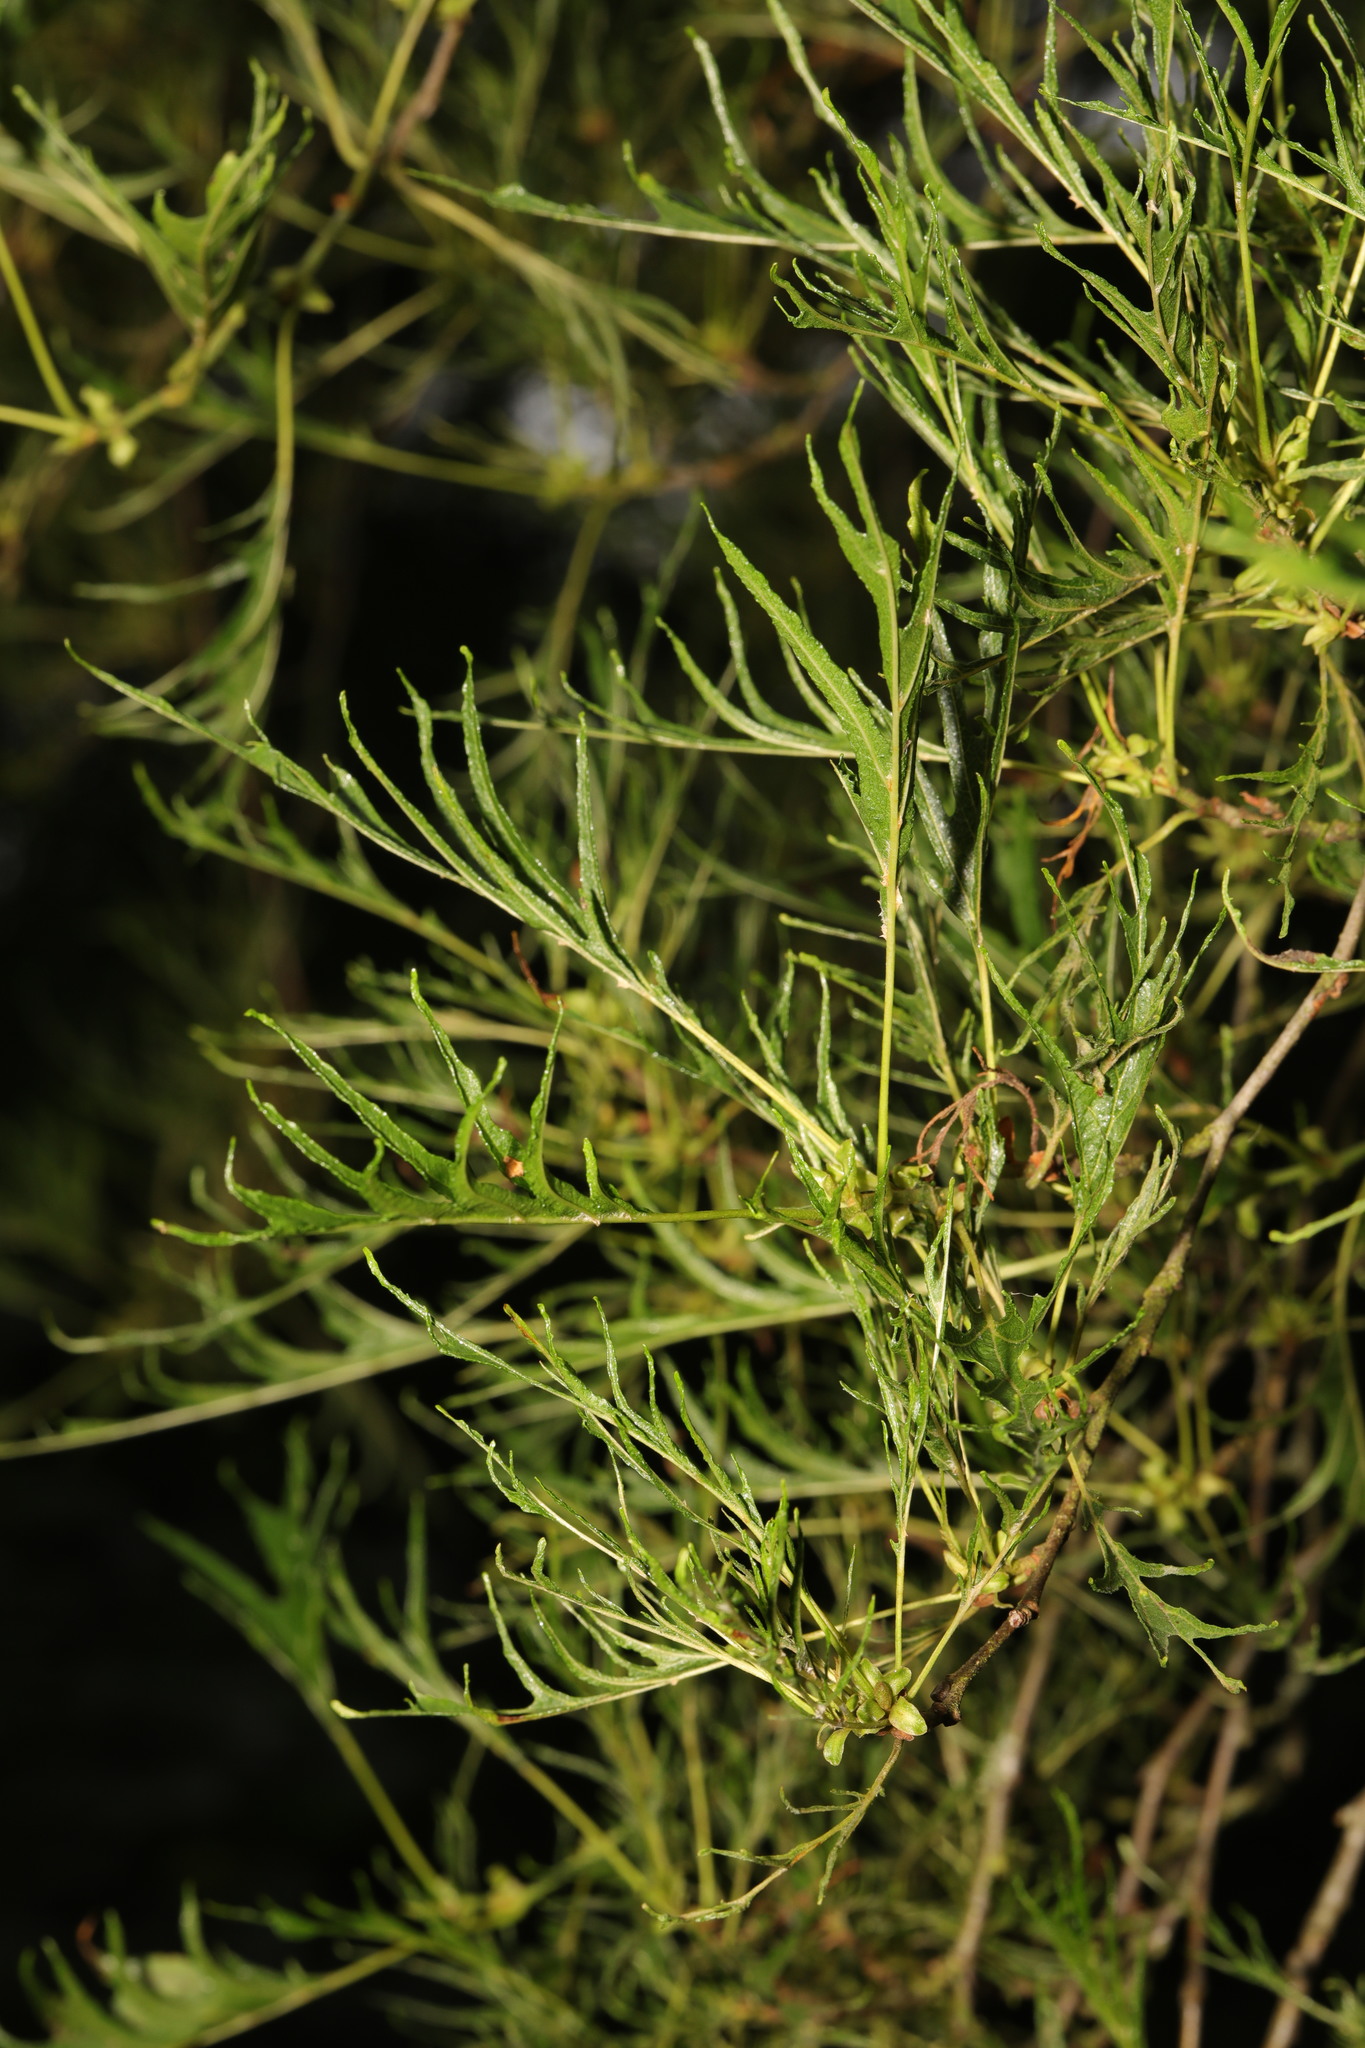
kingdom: Plantae
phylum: Tracheophyta
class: Magnoliopsida
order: Fagales
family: Betulaceae
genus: Alnus
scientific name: Alnus glutinosa
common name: Black alder
